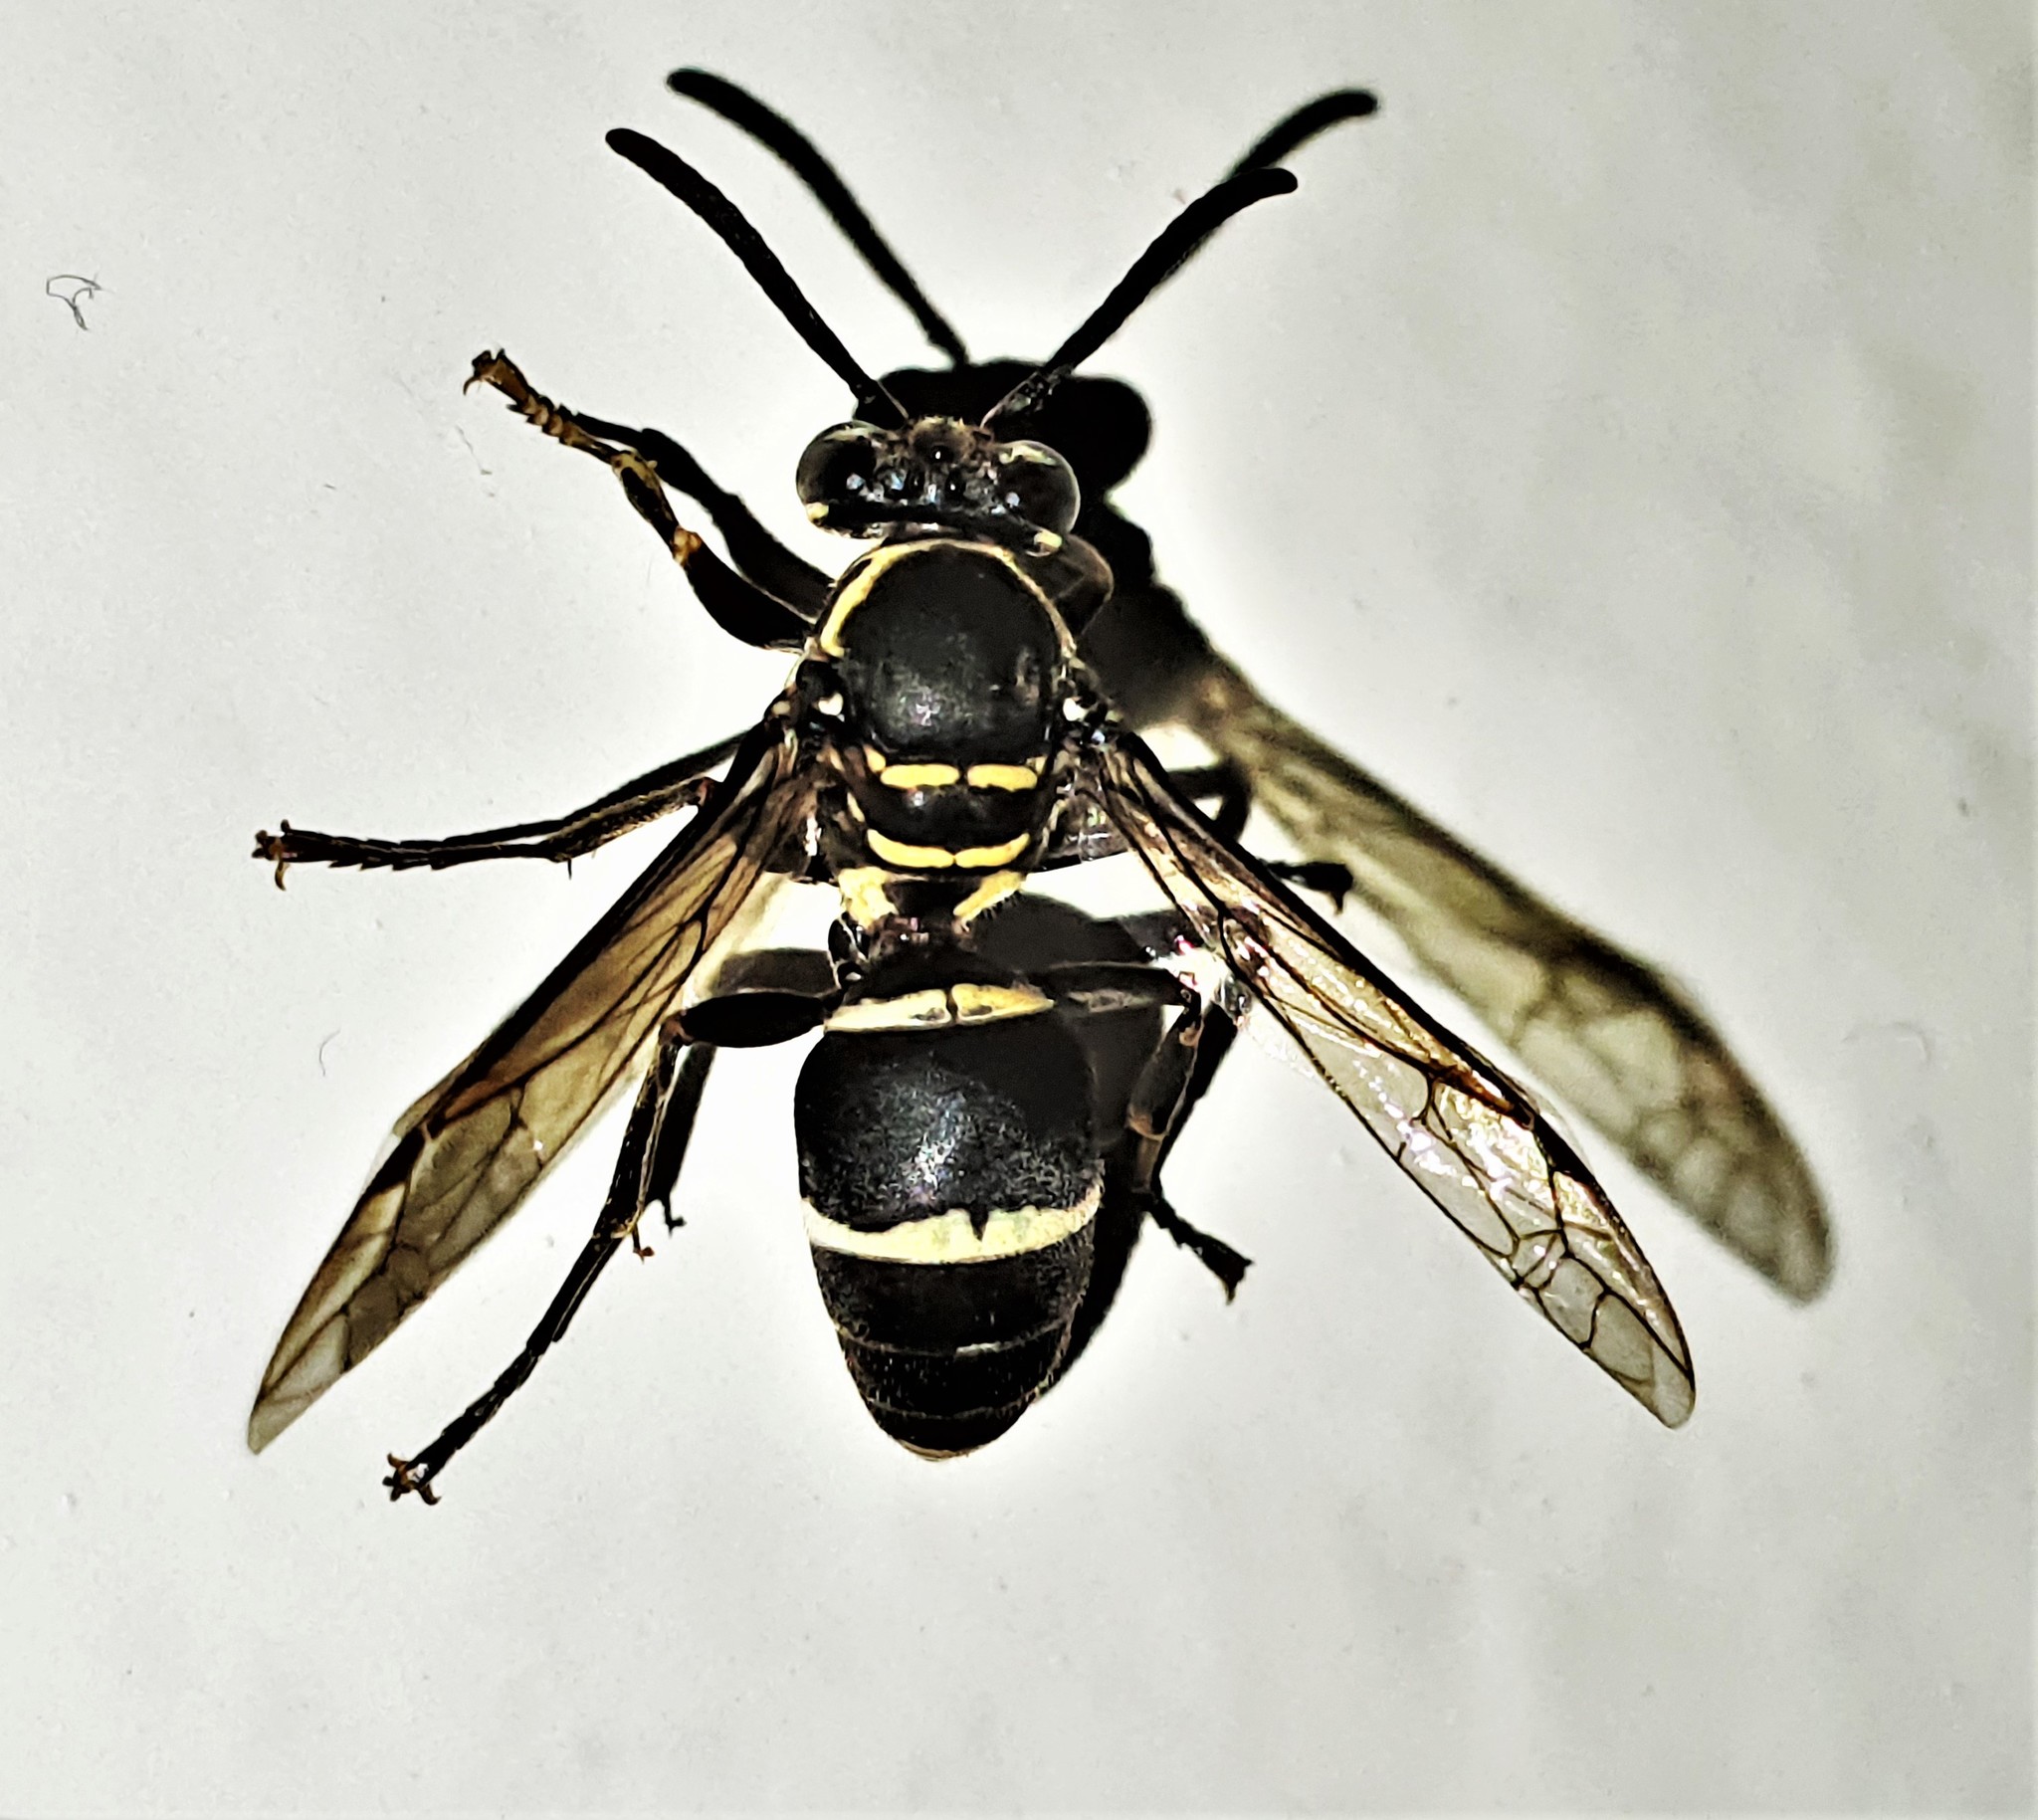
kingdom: Animalia
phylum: Arthropoda
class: Insecta
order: Hymenoptera
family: Vespidae
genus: Parachartergus
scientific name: Parachartergus compressus
